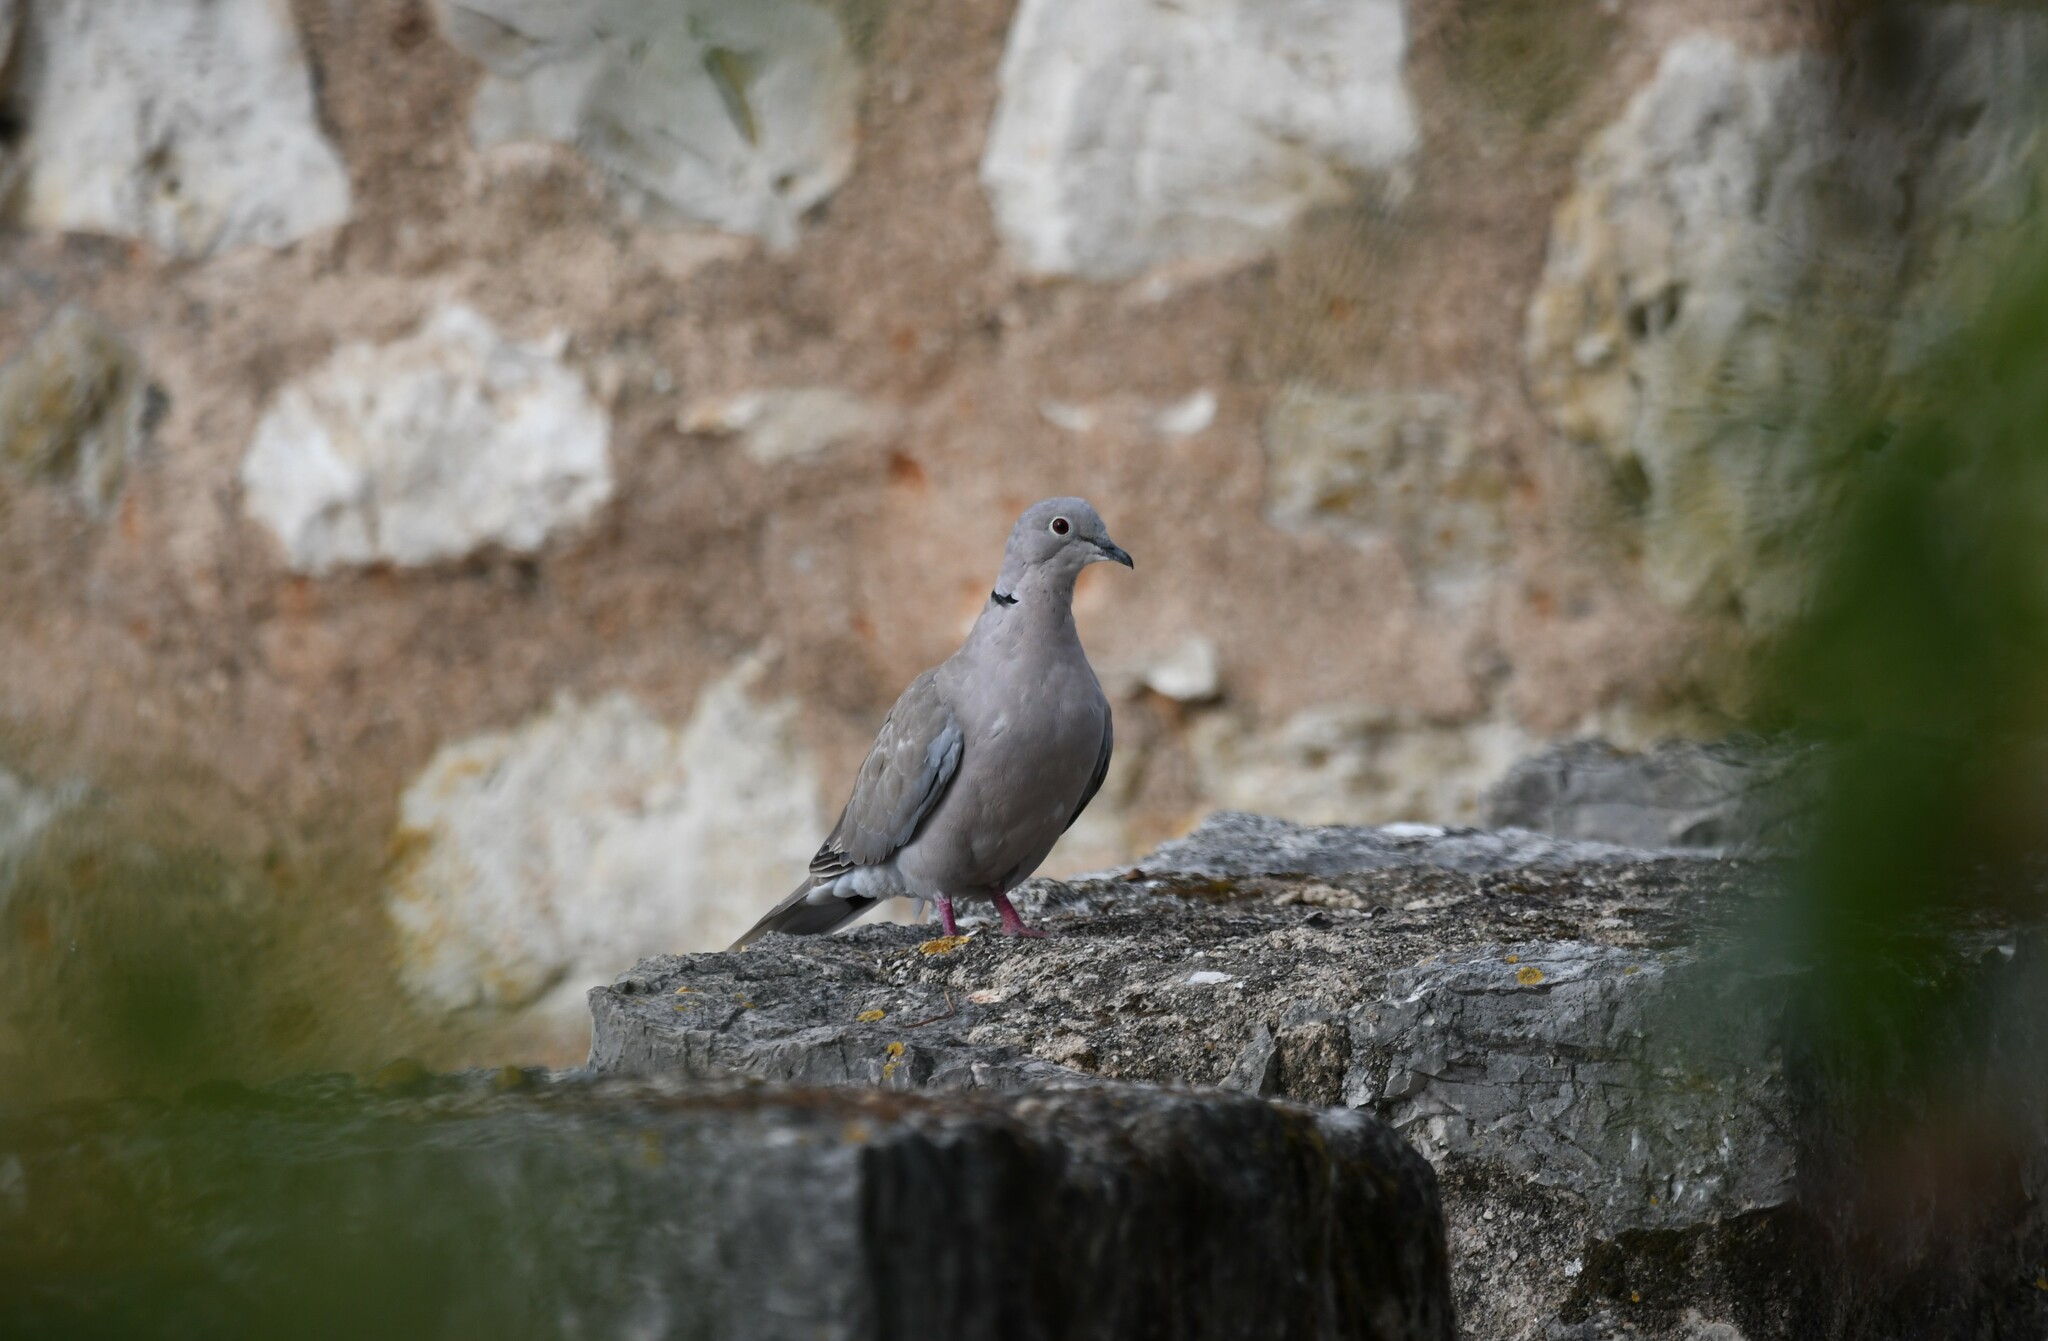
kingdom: Animalia
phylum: Chordata
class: Aves
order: Columbiformes
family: Columbidae
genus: Streptopelia
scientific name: Streptopelia decaocto
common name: Eurasian collared dove
